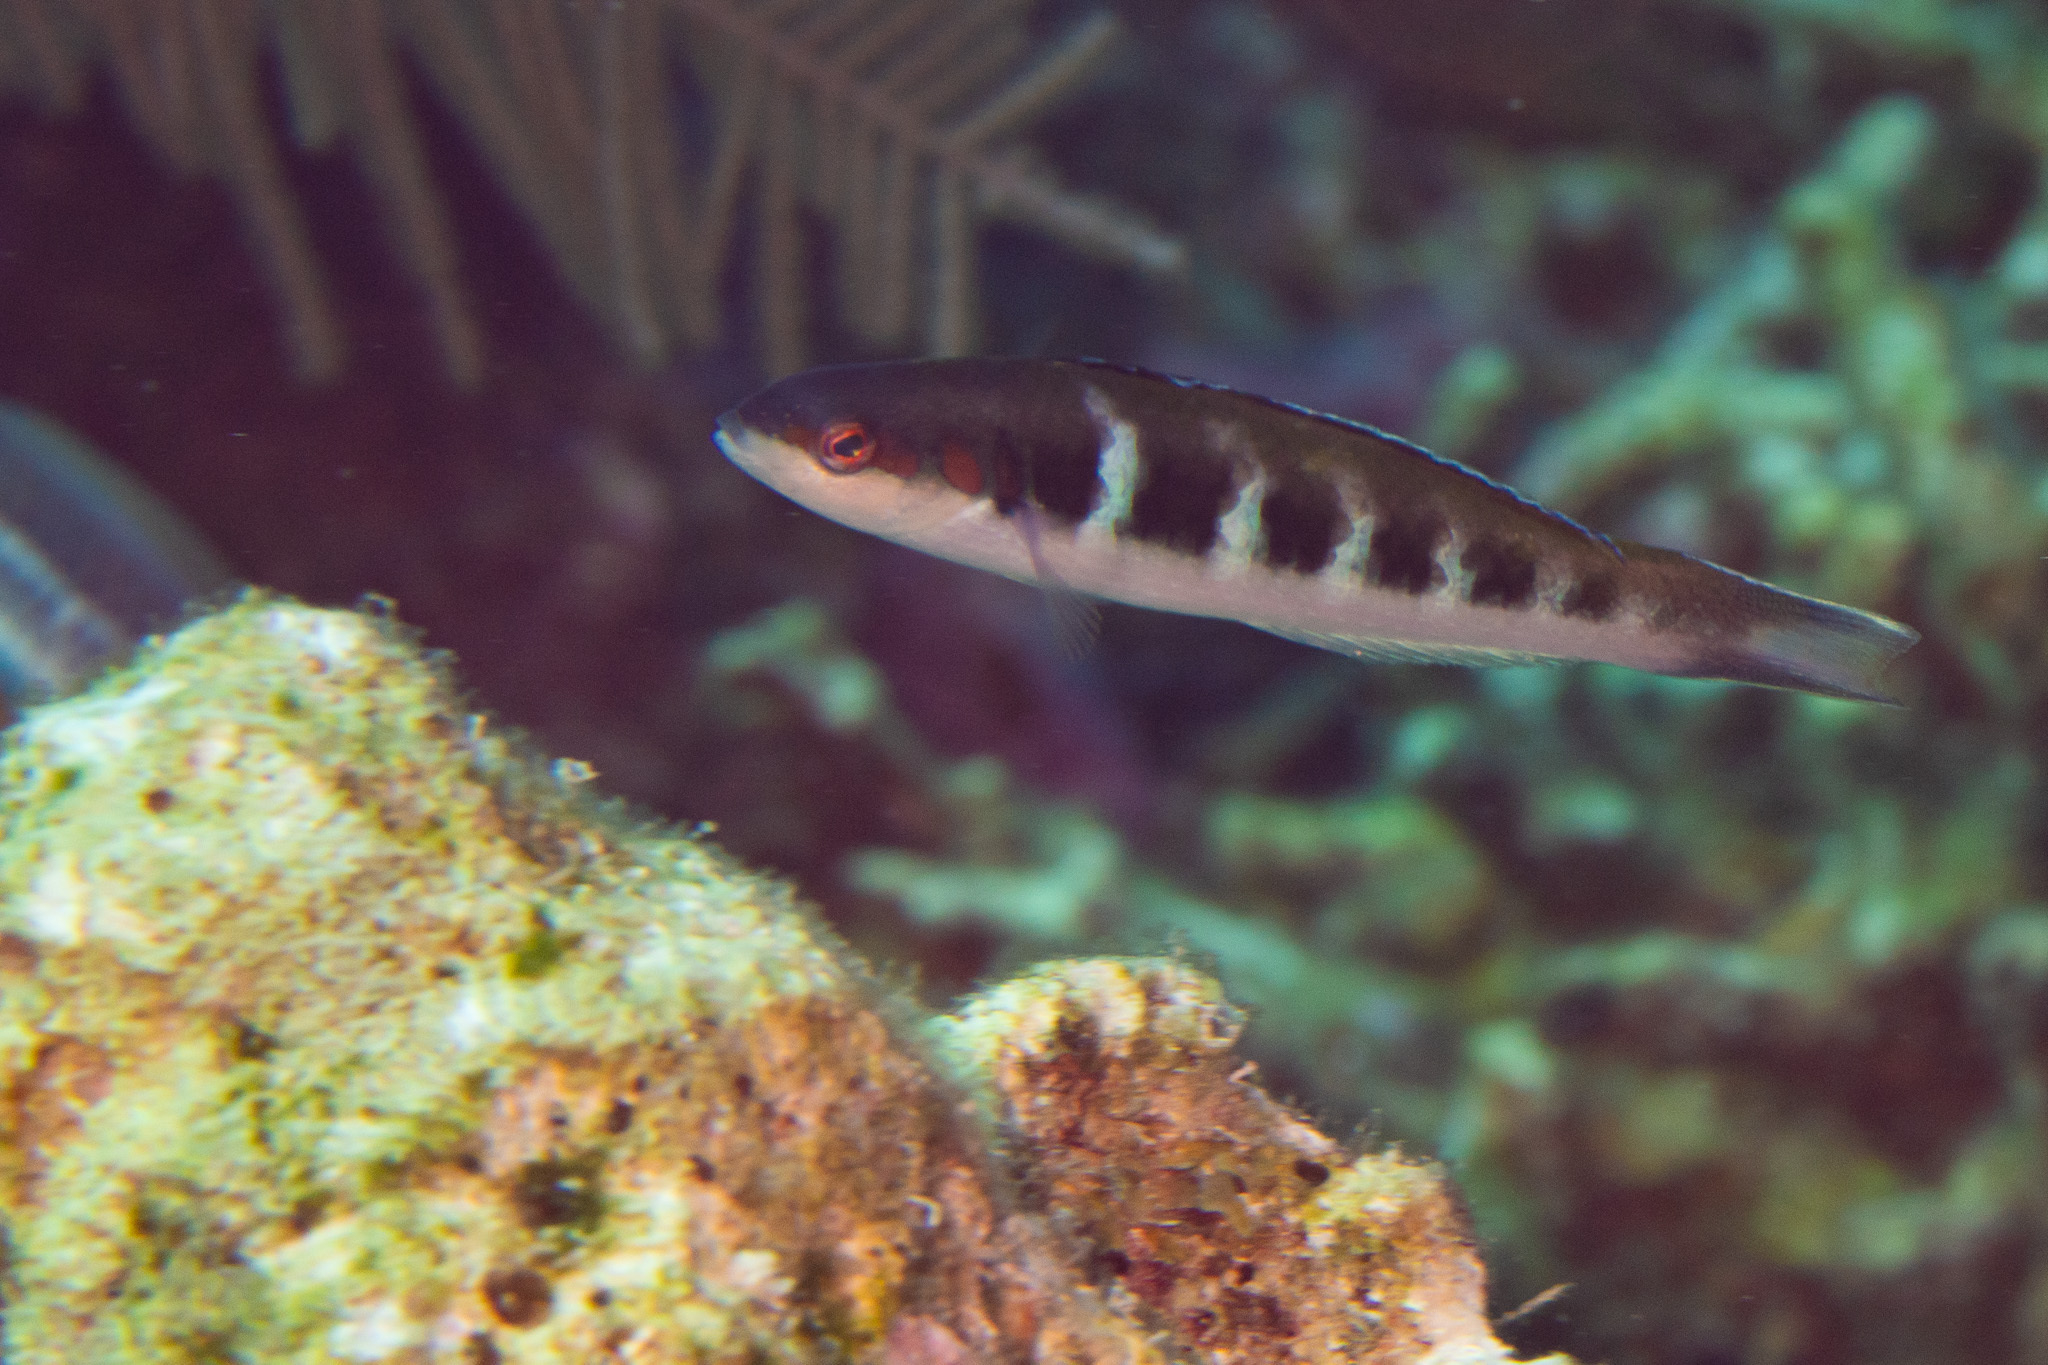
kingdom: Animalia
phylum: Chordata
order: Perciformes
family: Labridae
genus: Thalassoma
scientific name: Thalassoma bifasciatum
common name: Bluehead wrasse
